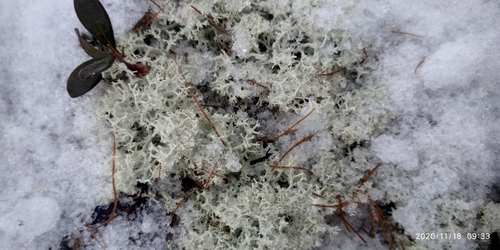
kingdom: Fungi
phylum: Ascomycota
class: Lecanoromycetes
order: Lecanorales
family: Cladoniaceae
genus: Cladonia
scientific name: Cladonia portentosa
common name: Reindeer lichen
